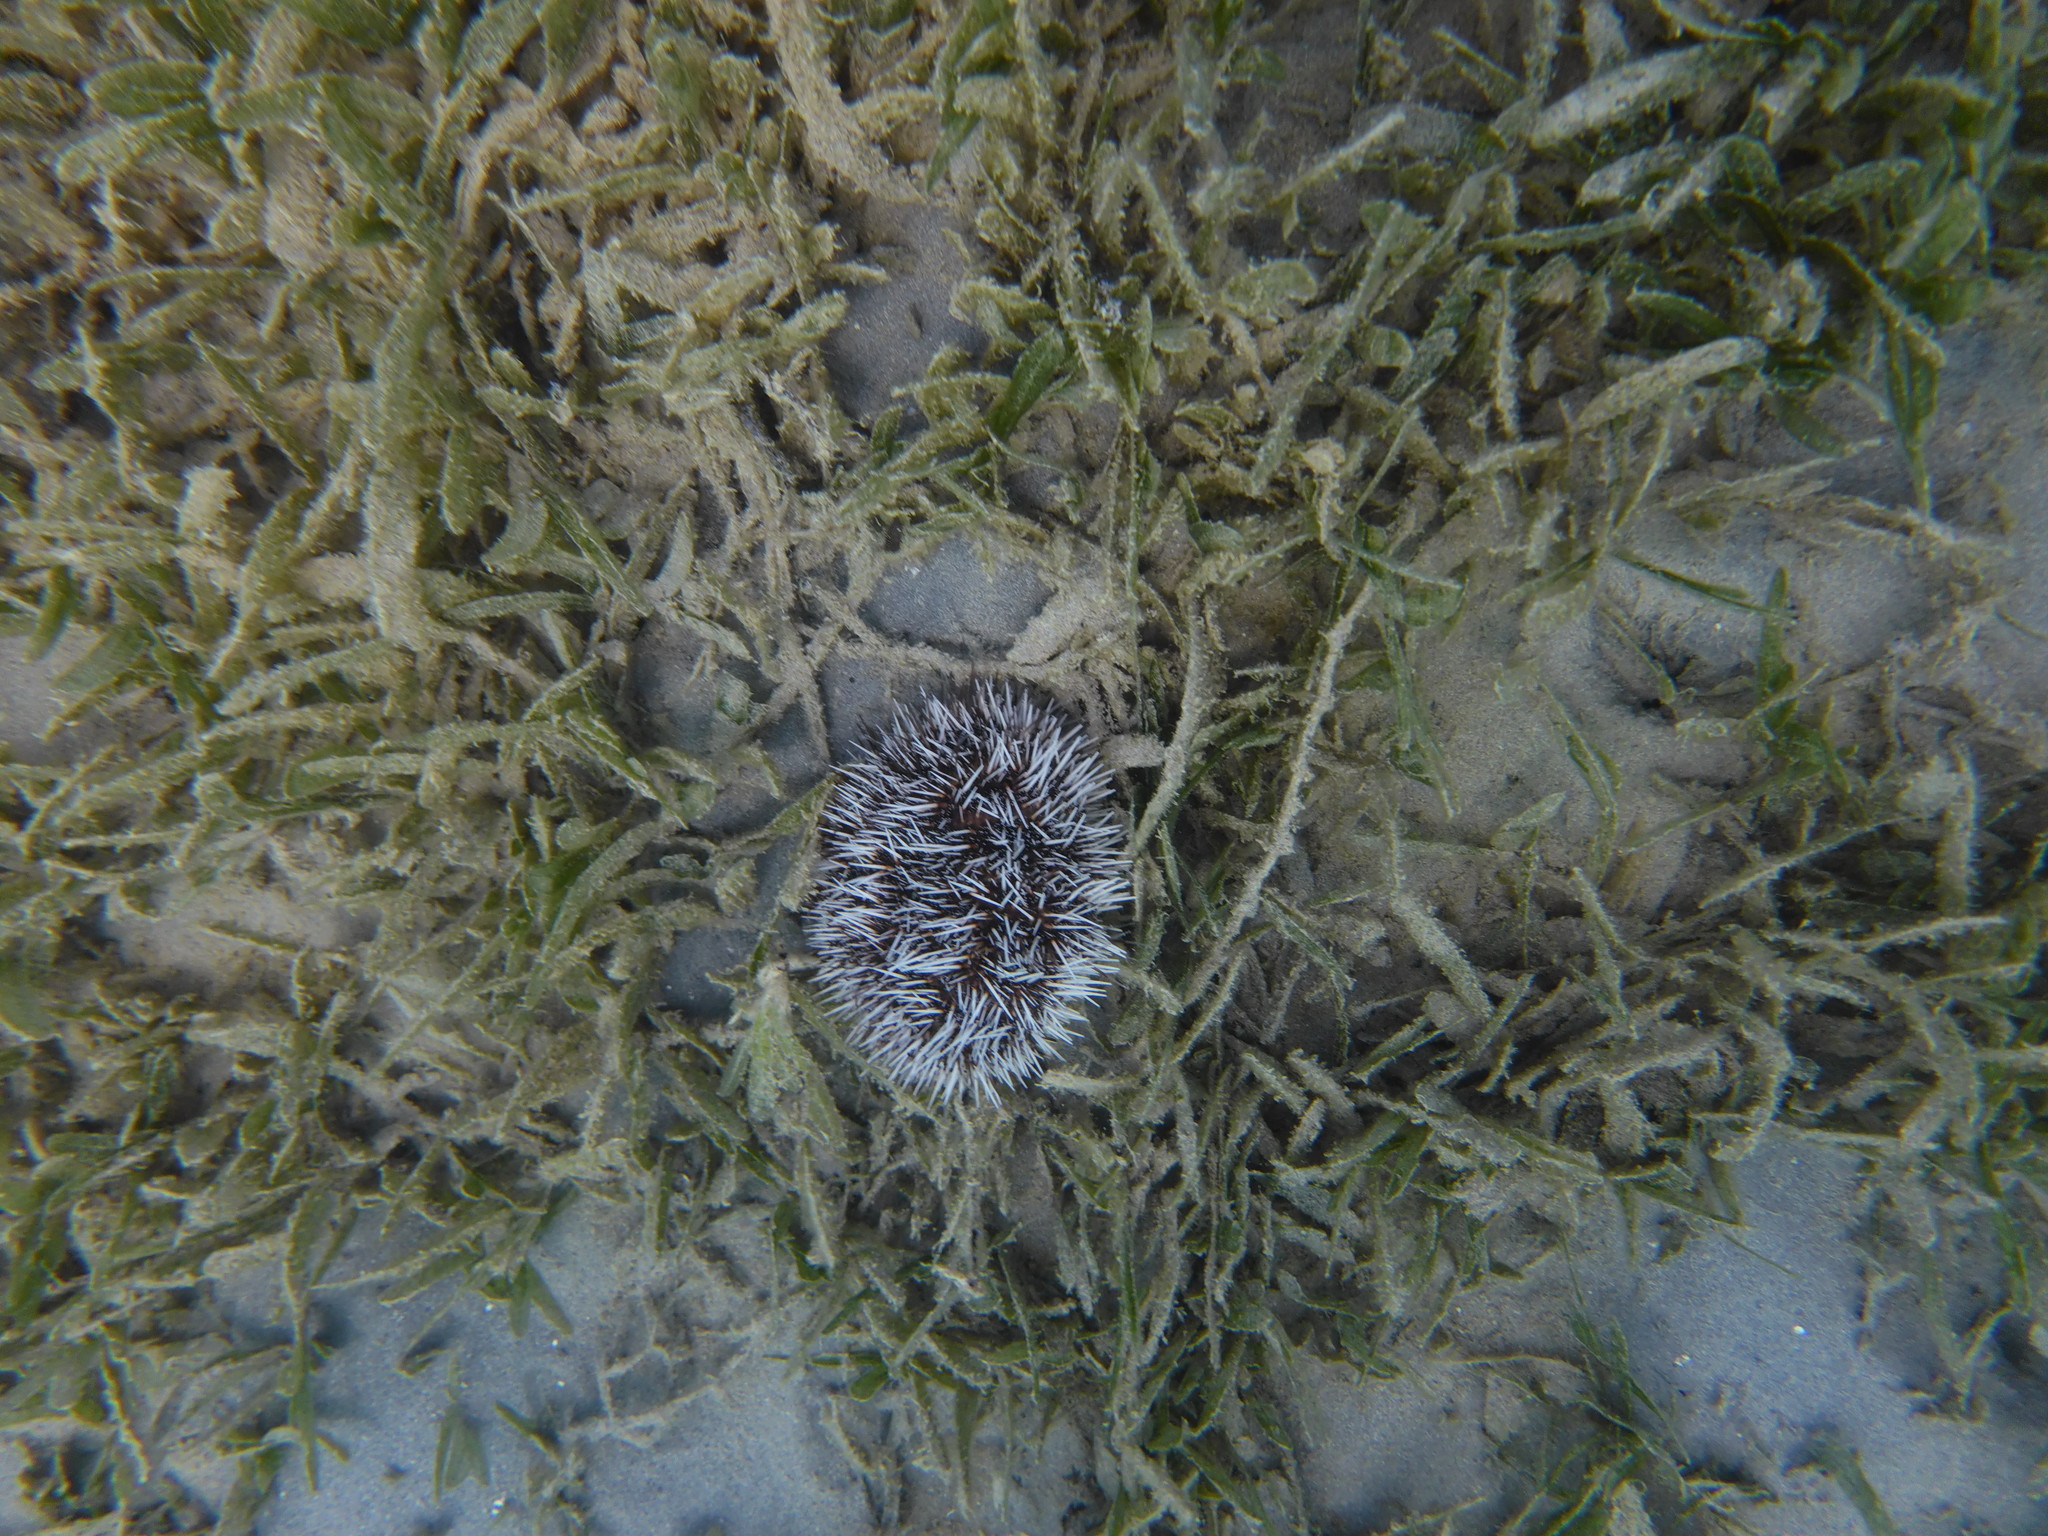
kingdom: Animalia
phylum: Echinodermata
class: Echinoidea
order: Camarodonta
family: Toxopneustidae
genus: Tripneustes
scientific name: Tripneustes ventricosus
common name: West indian sea egg
